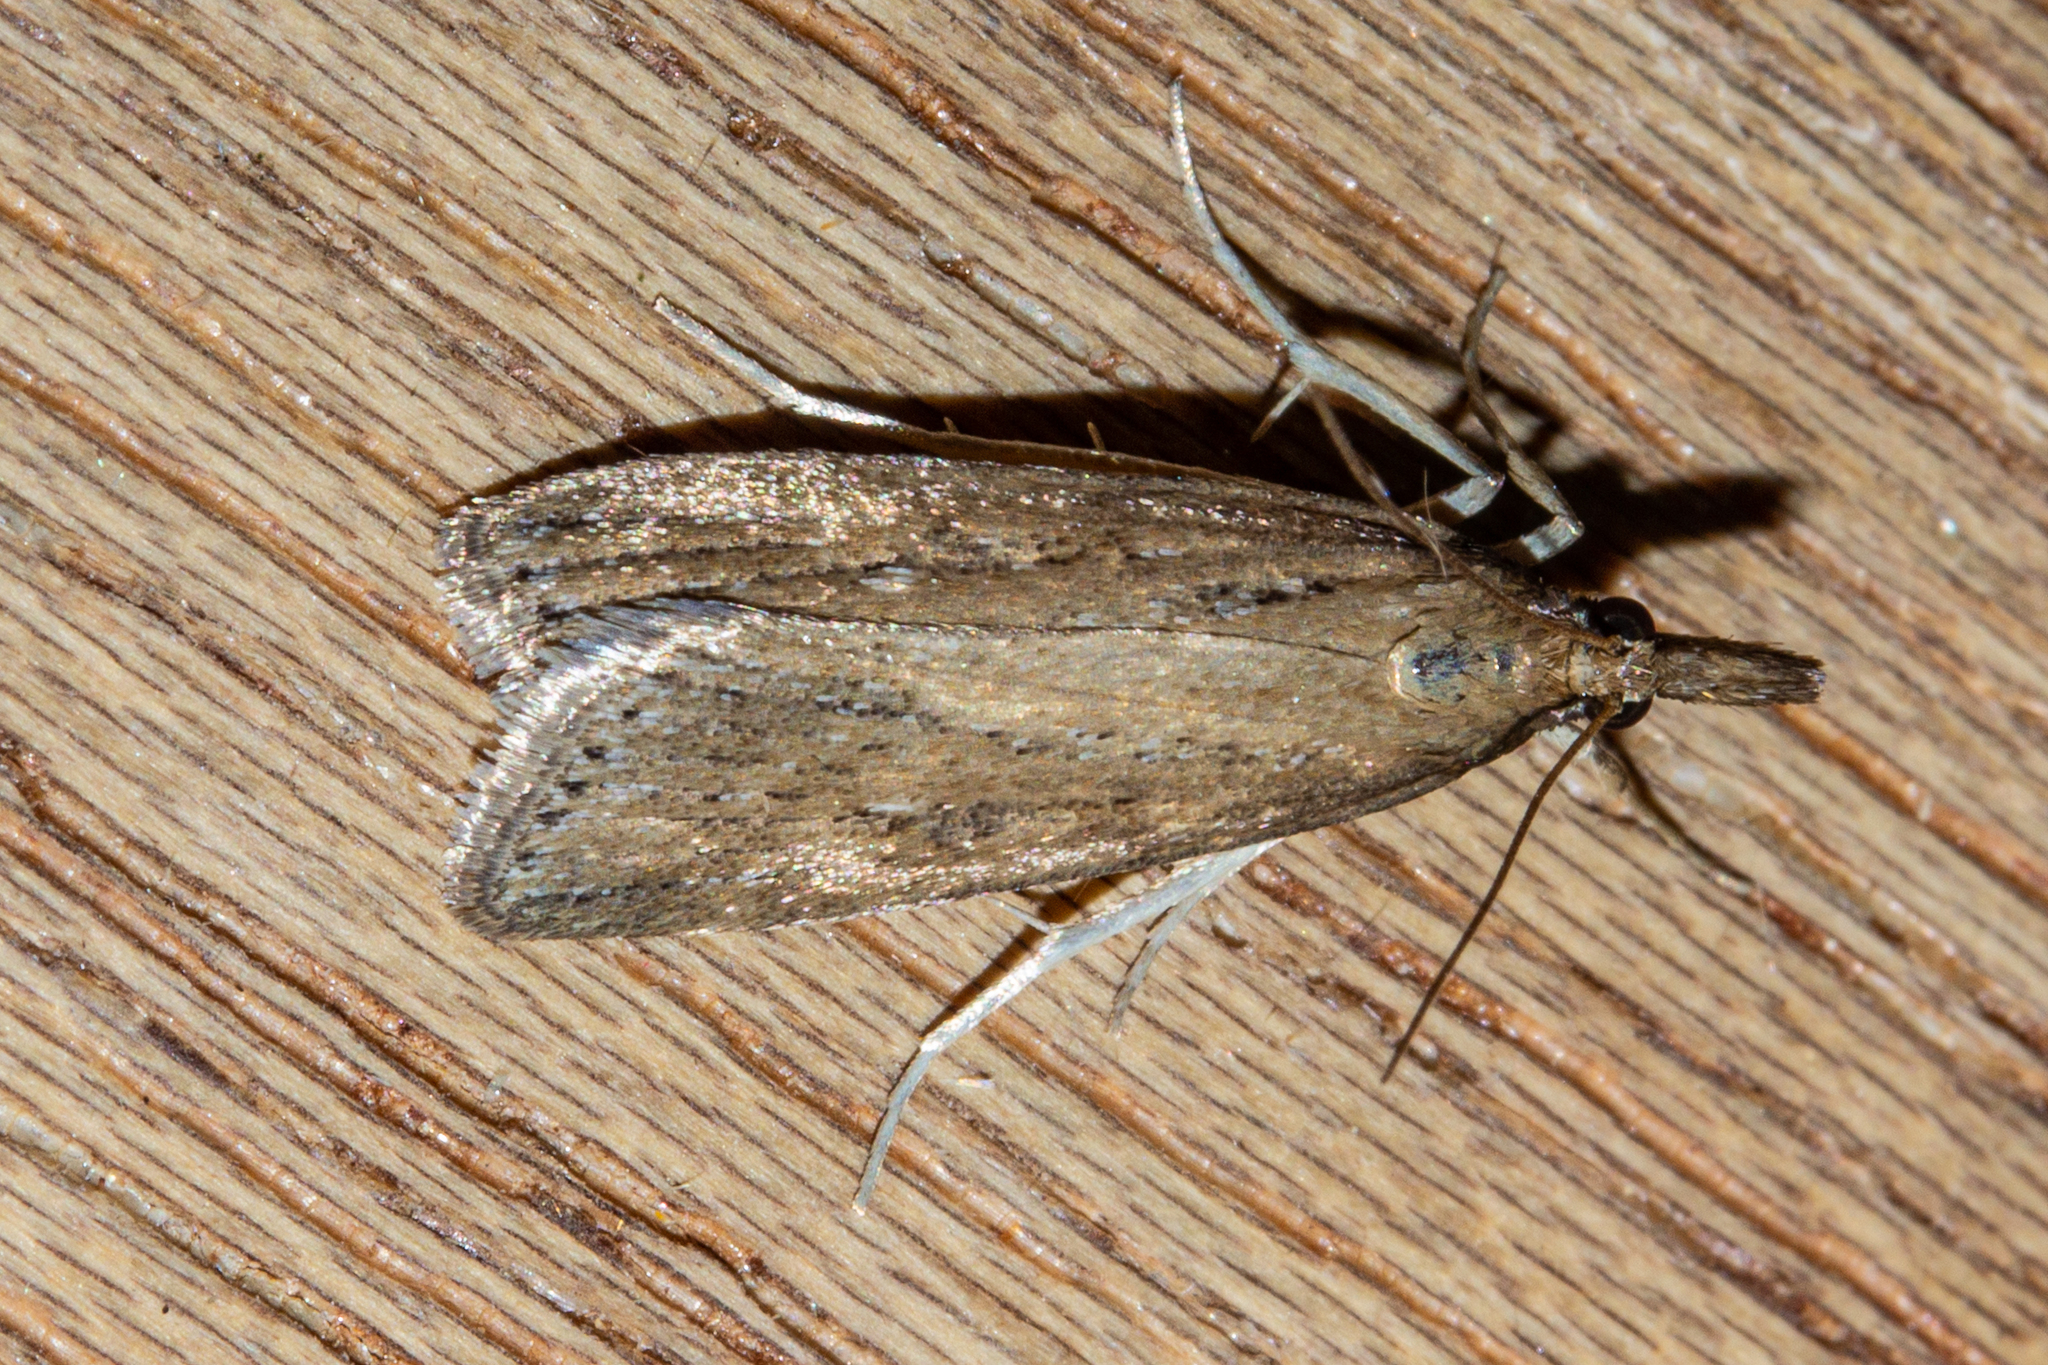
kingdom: Animalia
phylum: Arthropoda
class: Insecta
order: Lepidoptera
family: Crambidae
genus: Eudonia
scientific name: Eudonia octophora
